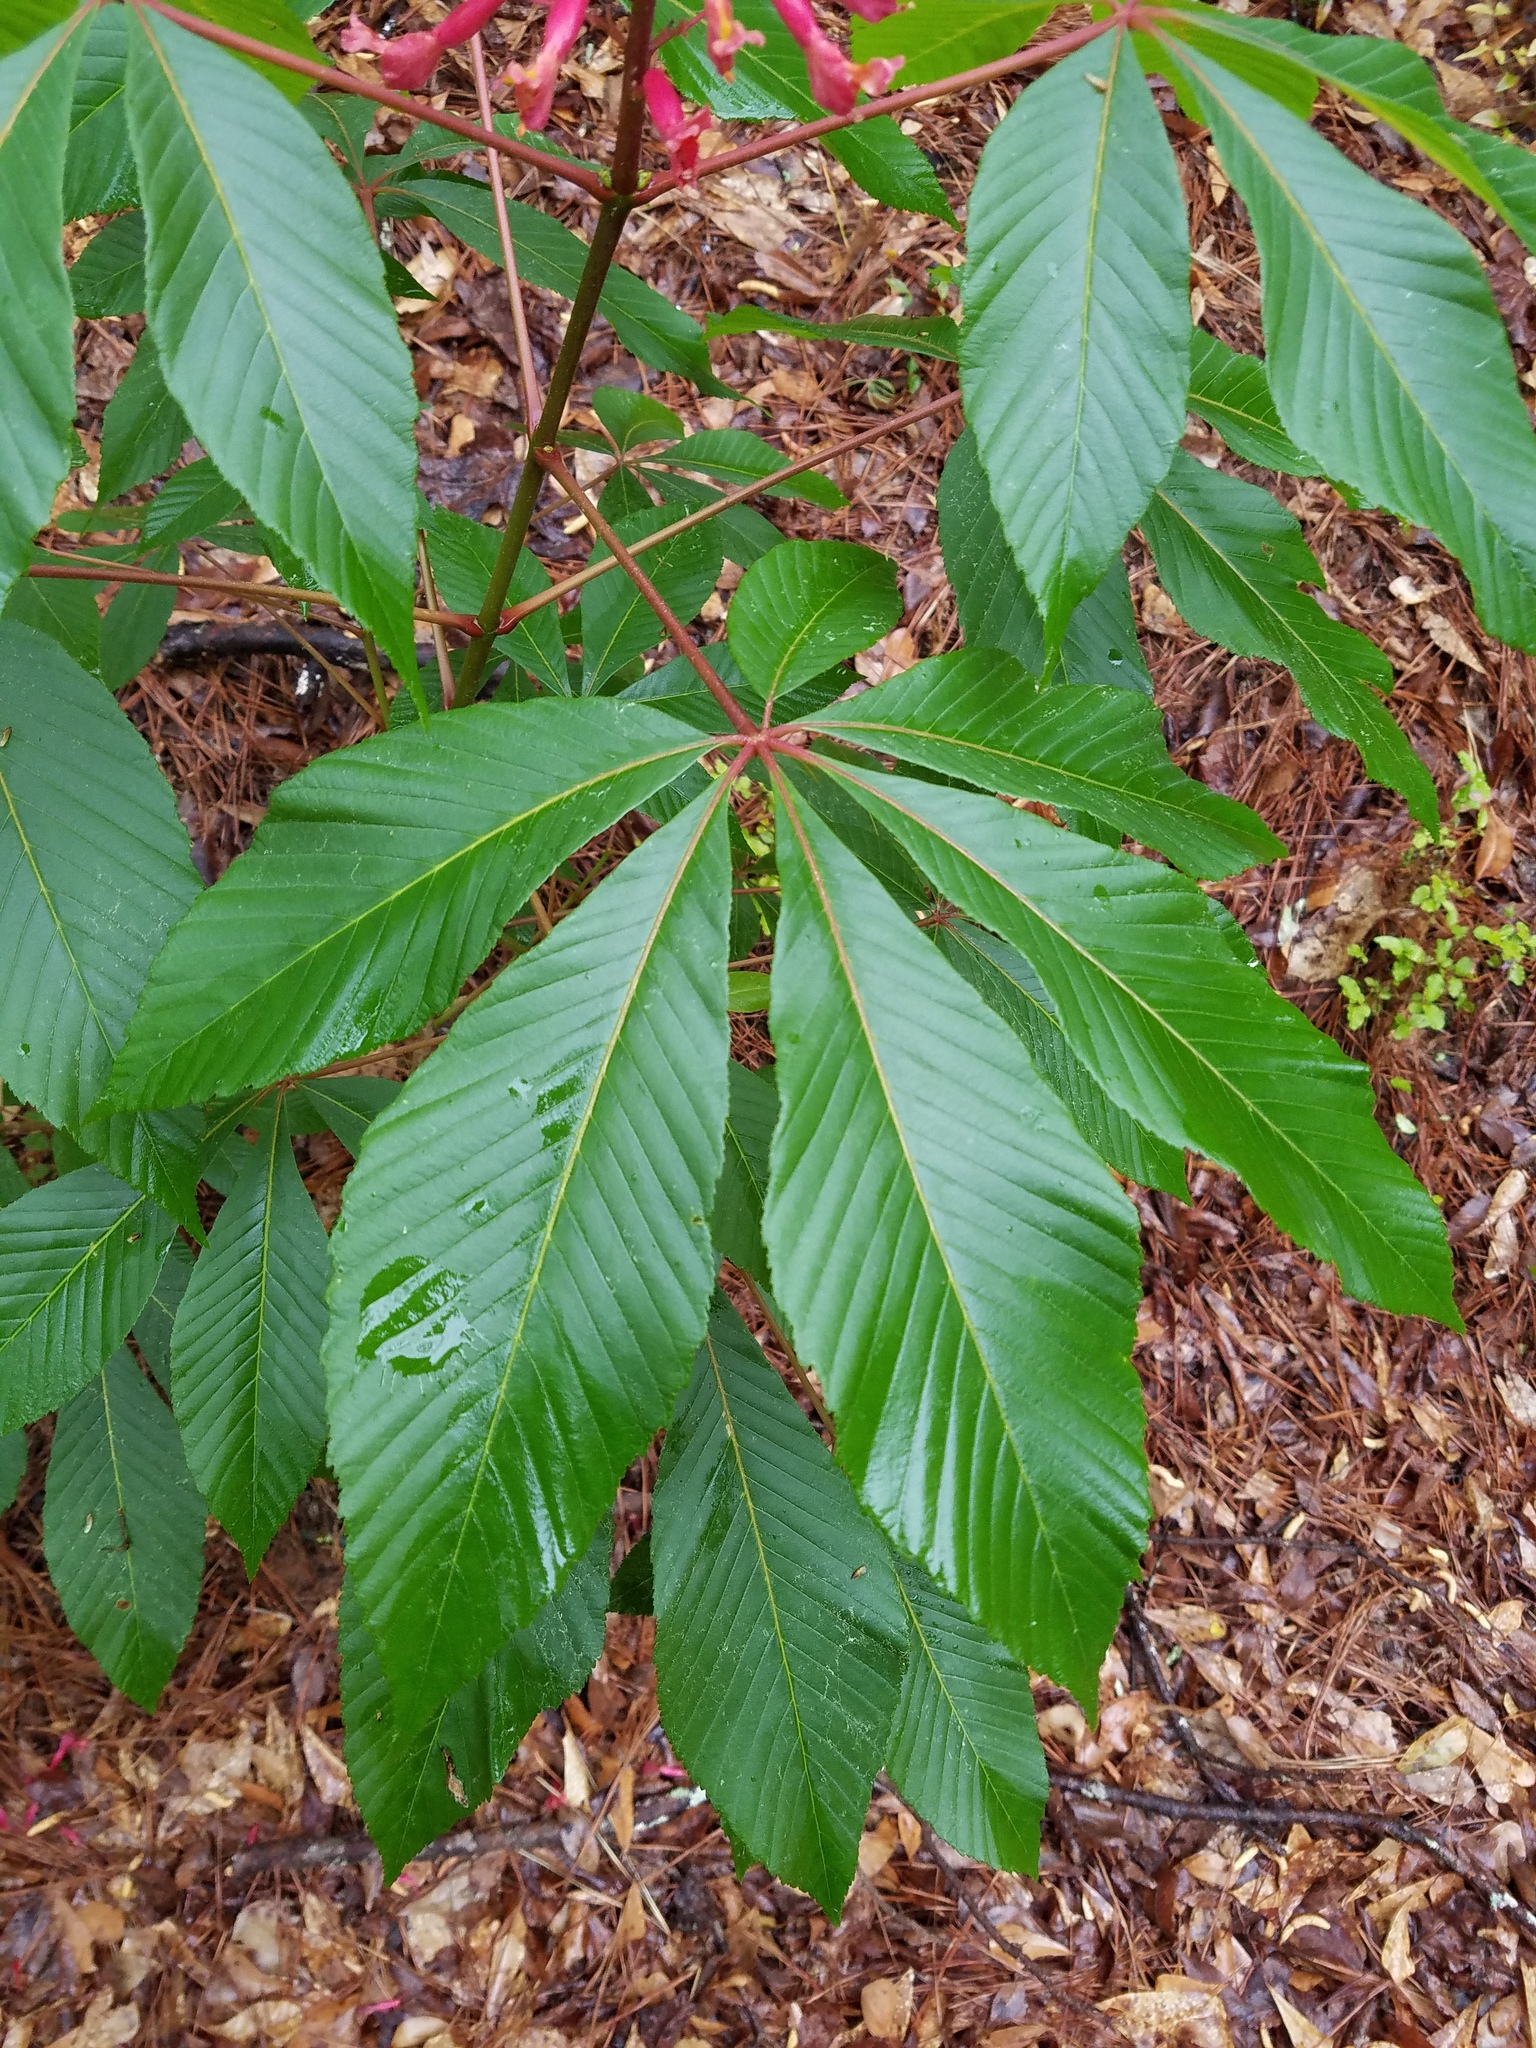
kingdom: Plantae
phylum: Tracheophyta
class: Magnoliopsida
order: Sapindales
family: Sapindaceae
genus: Aesculus
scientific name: Aesculus pavia
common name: Red buckeye
